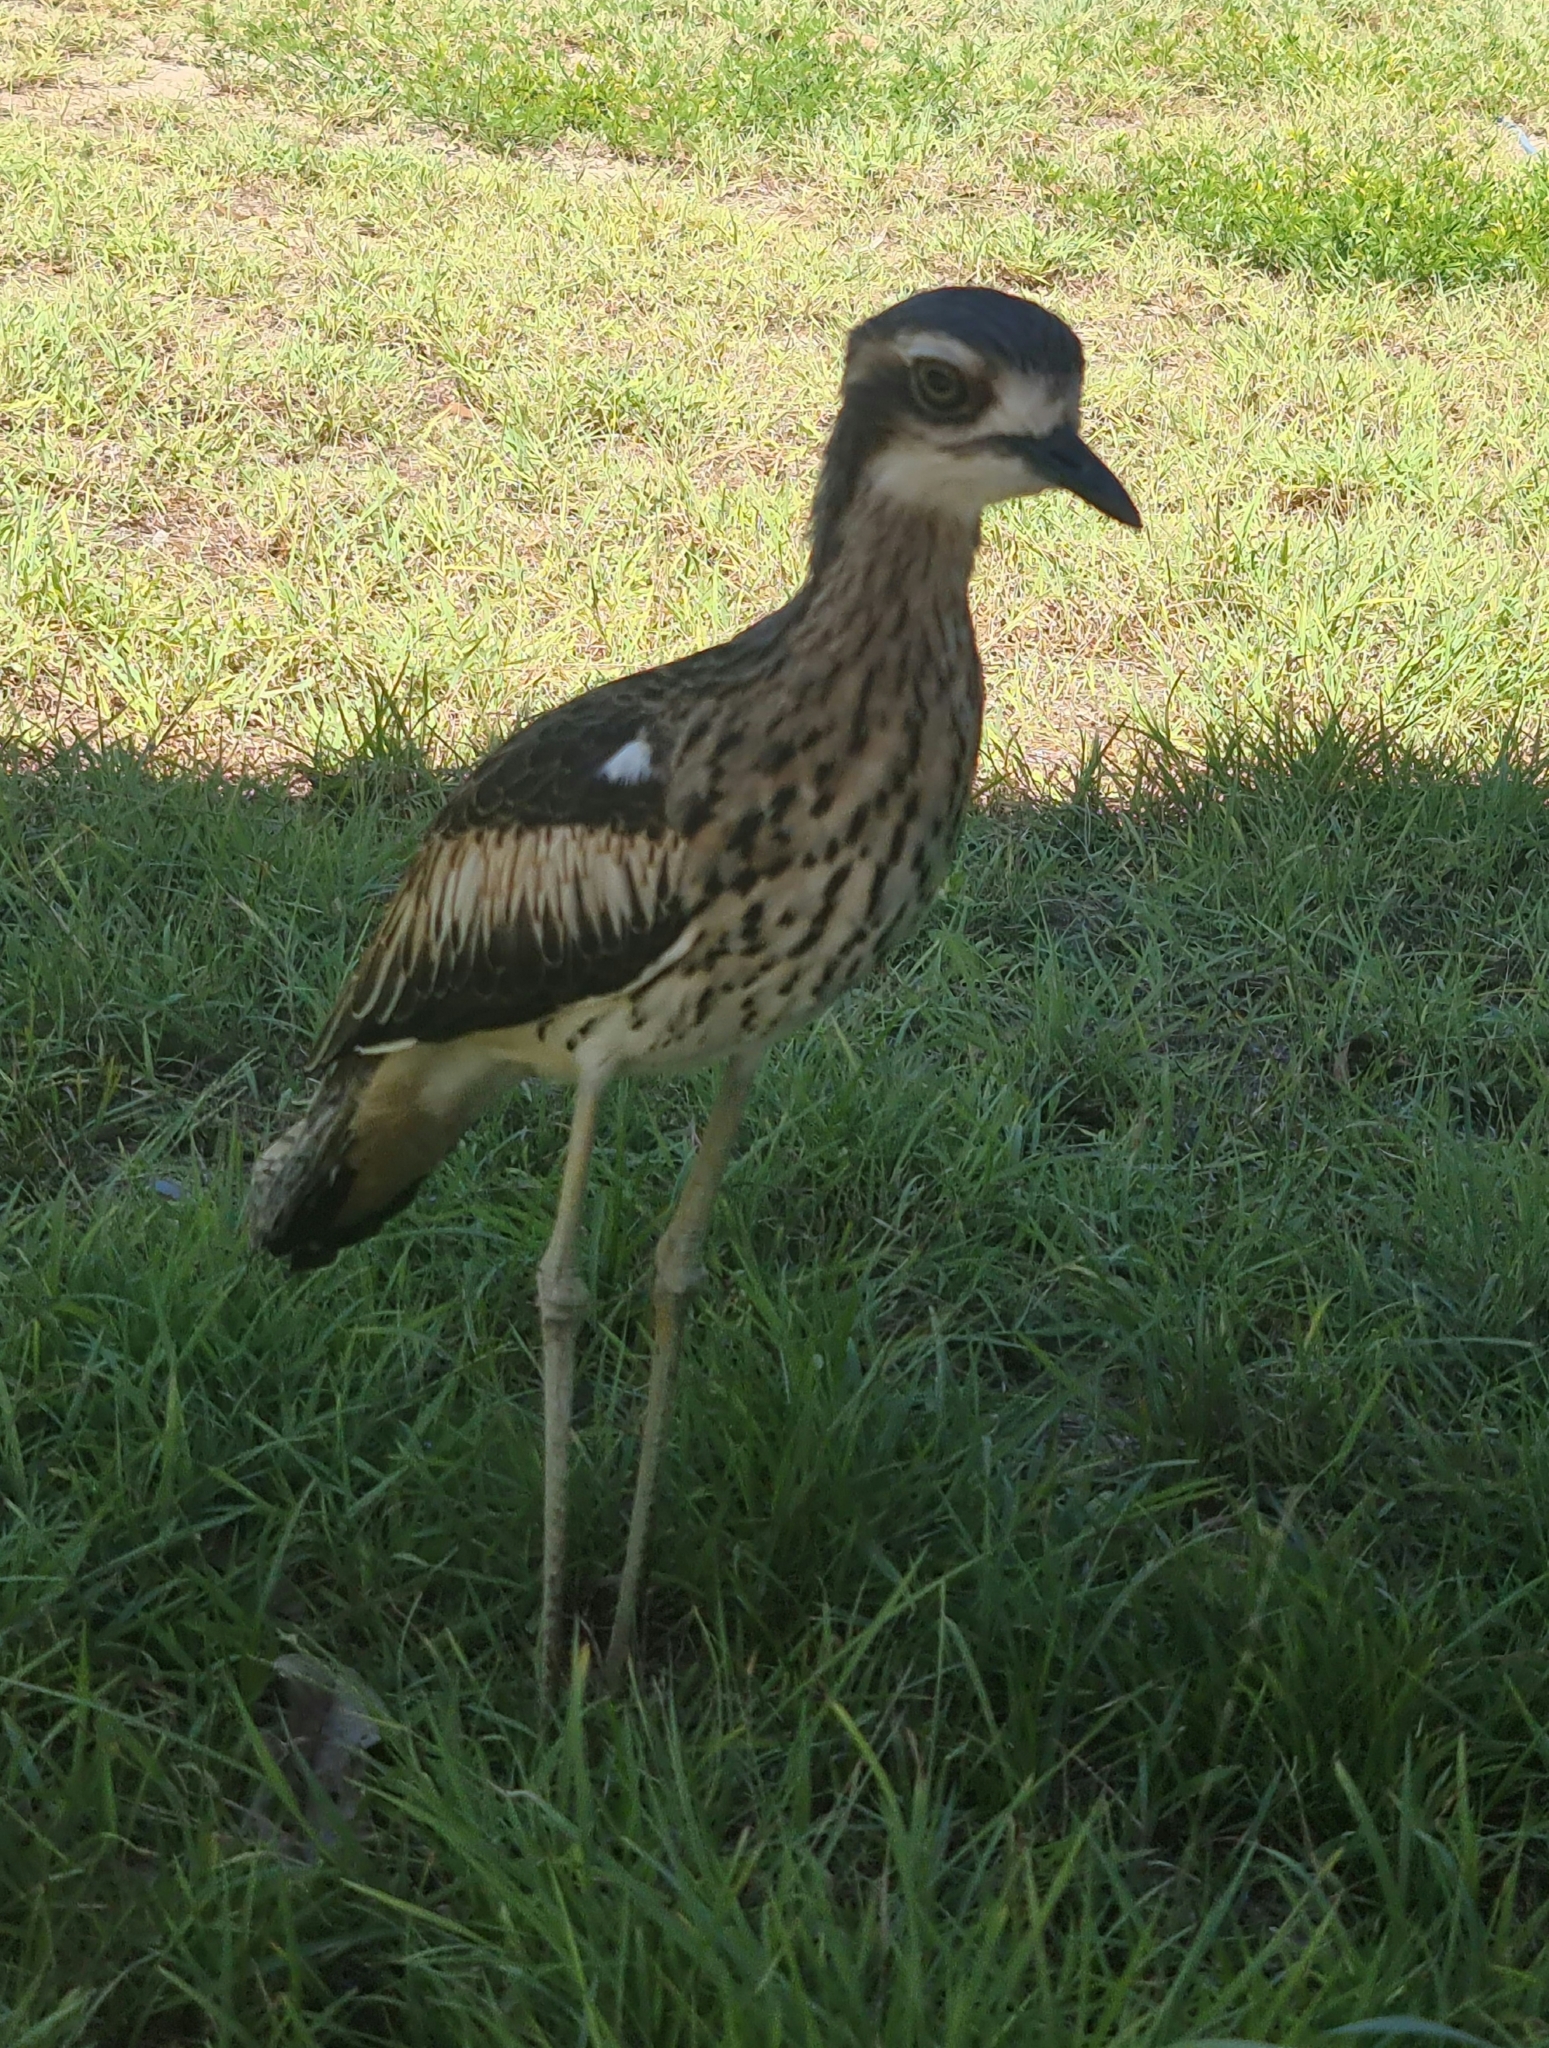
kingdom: Animalia
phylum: Chordata
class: Aves
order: Charadriiformes
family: Burhinidae
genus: Burhinus
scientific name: Burhinus grallarius
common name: Bush stone-curlew
